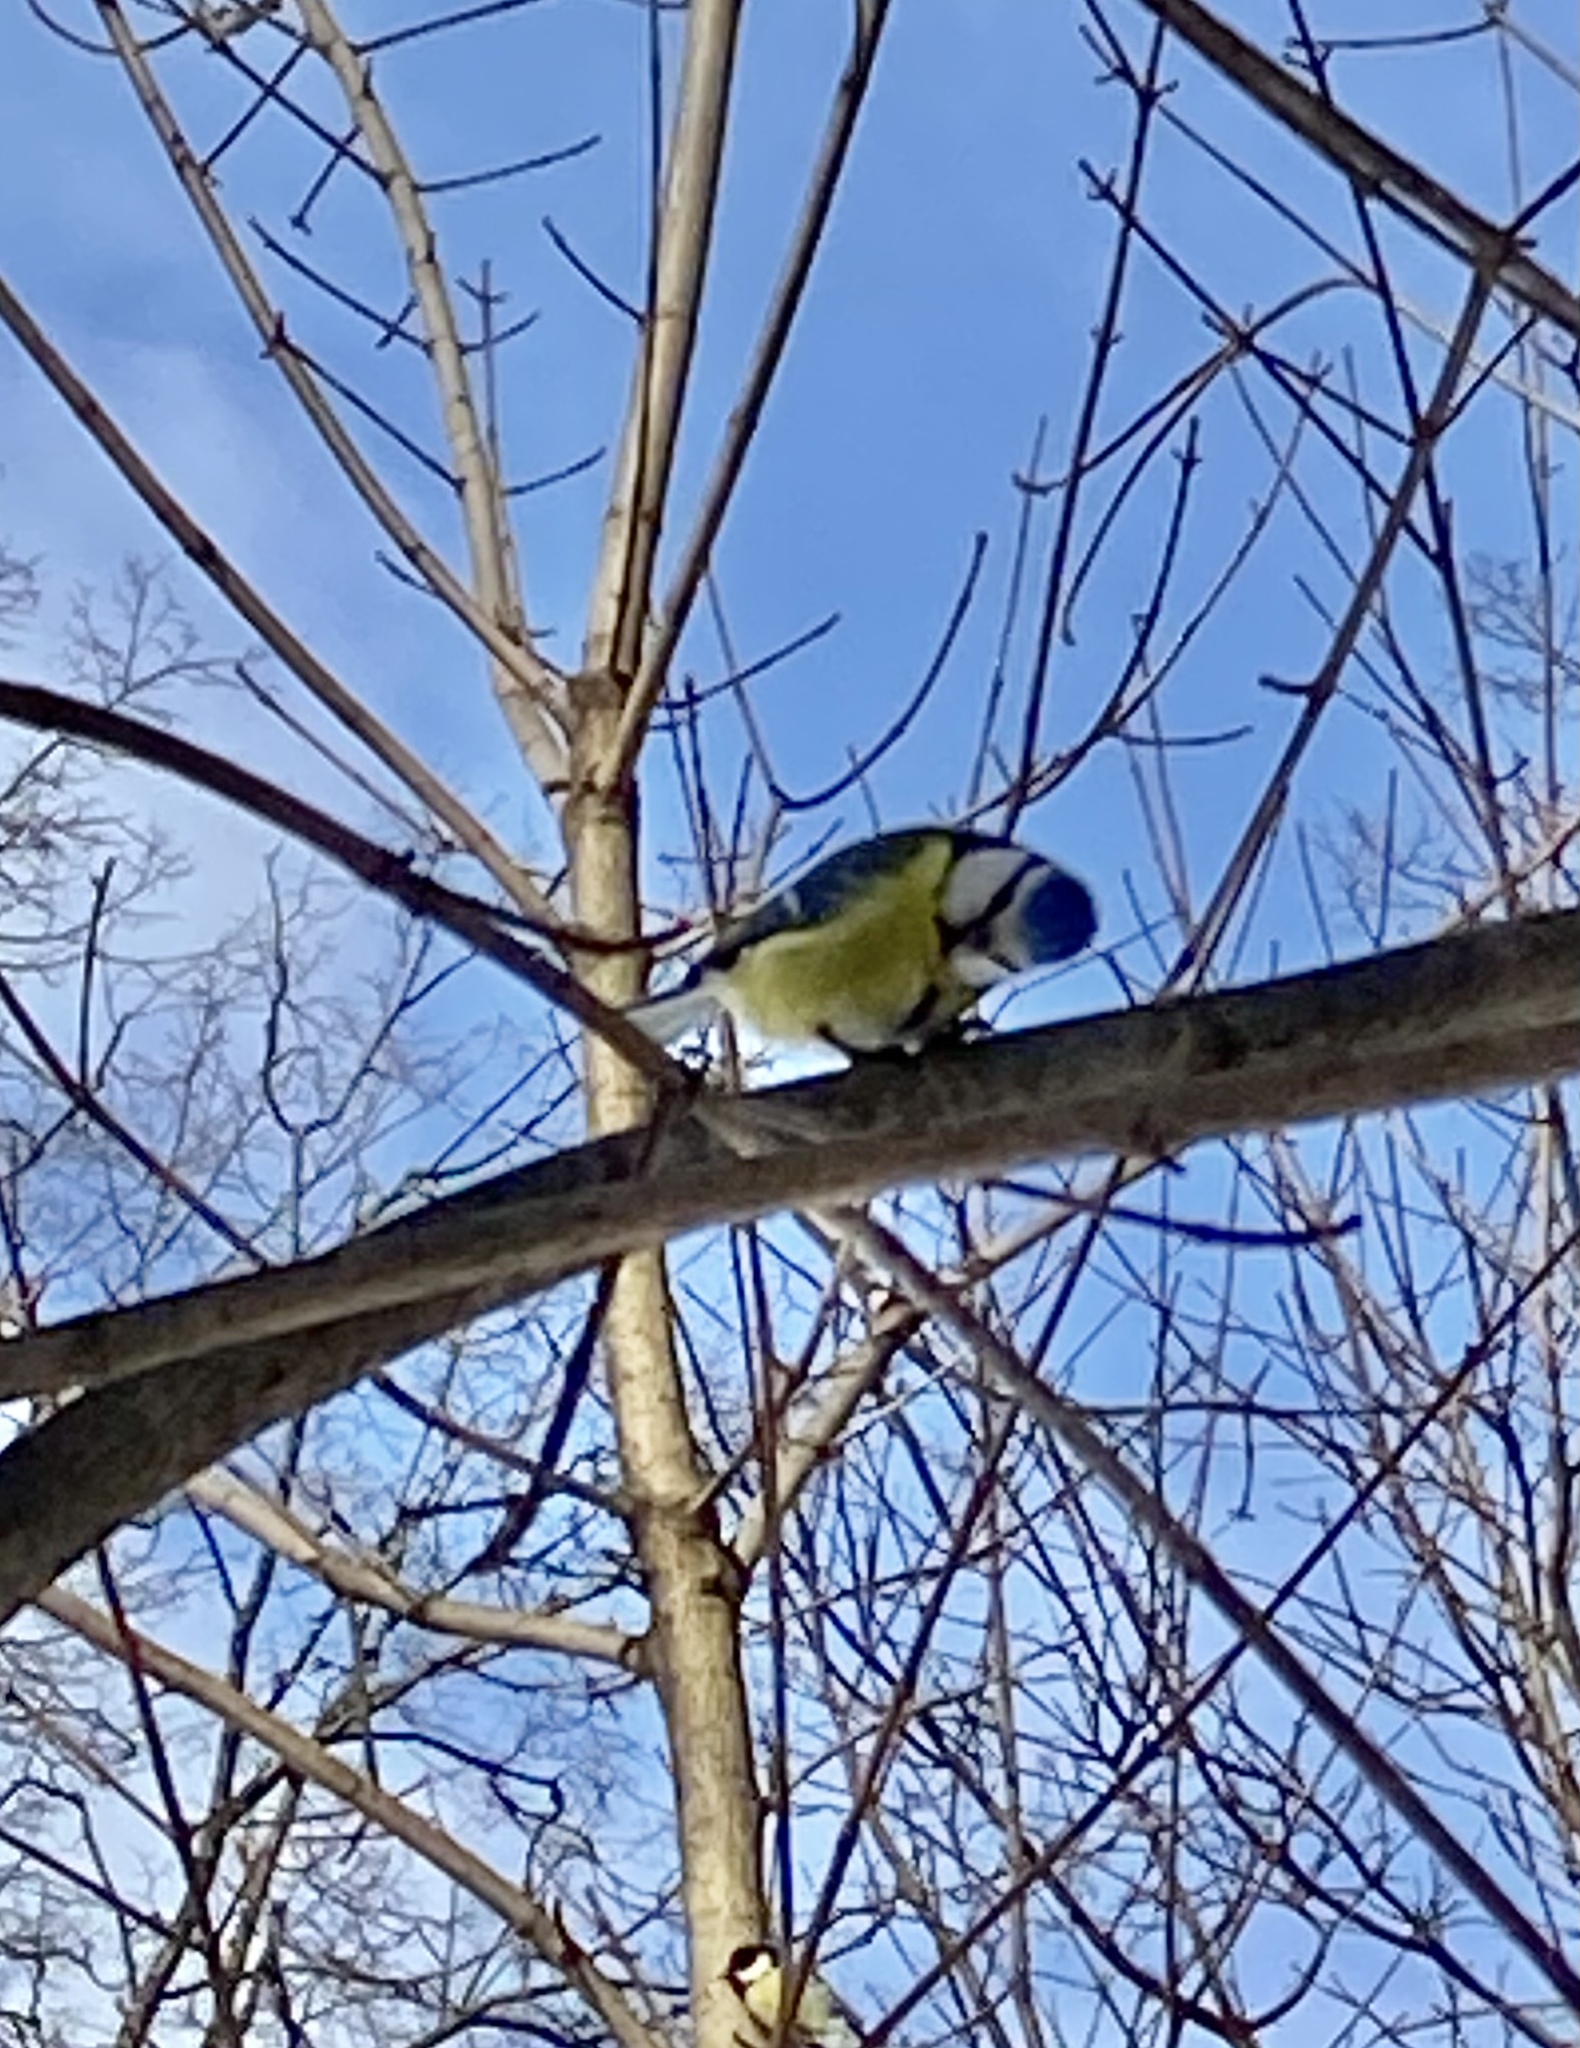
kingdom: Animalia
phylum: Chordata
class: Aves
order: Passeriformes
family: Paridae
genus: Cyanistes
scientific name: Cyanistes caeruleus
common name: Eurasian blue tit
